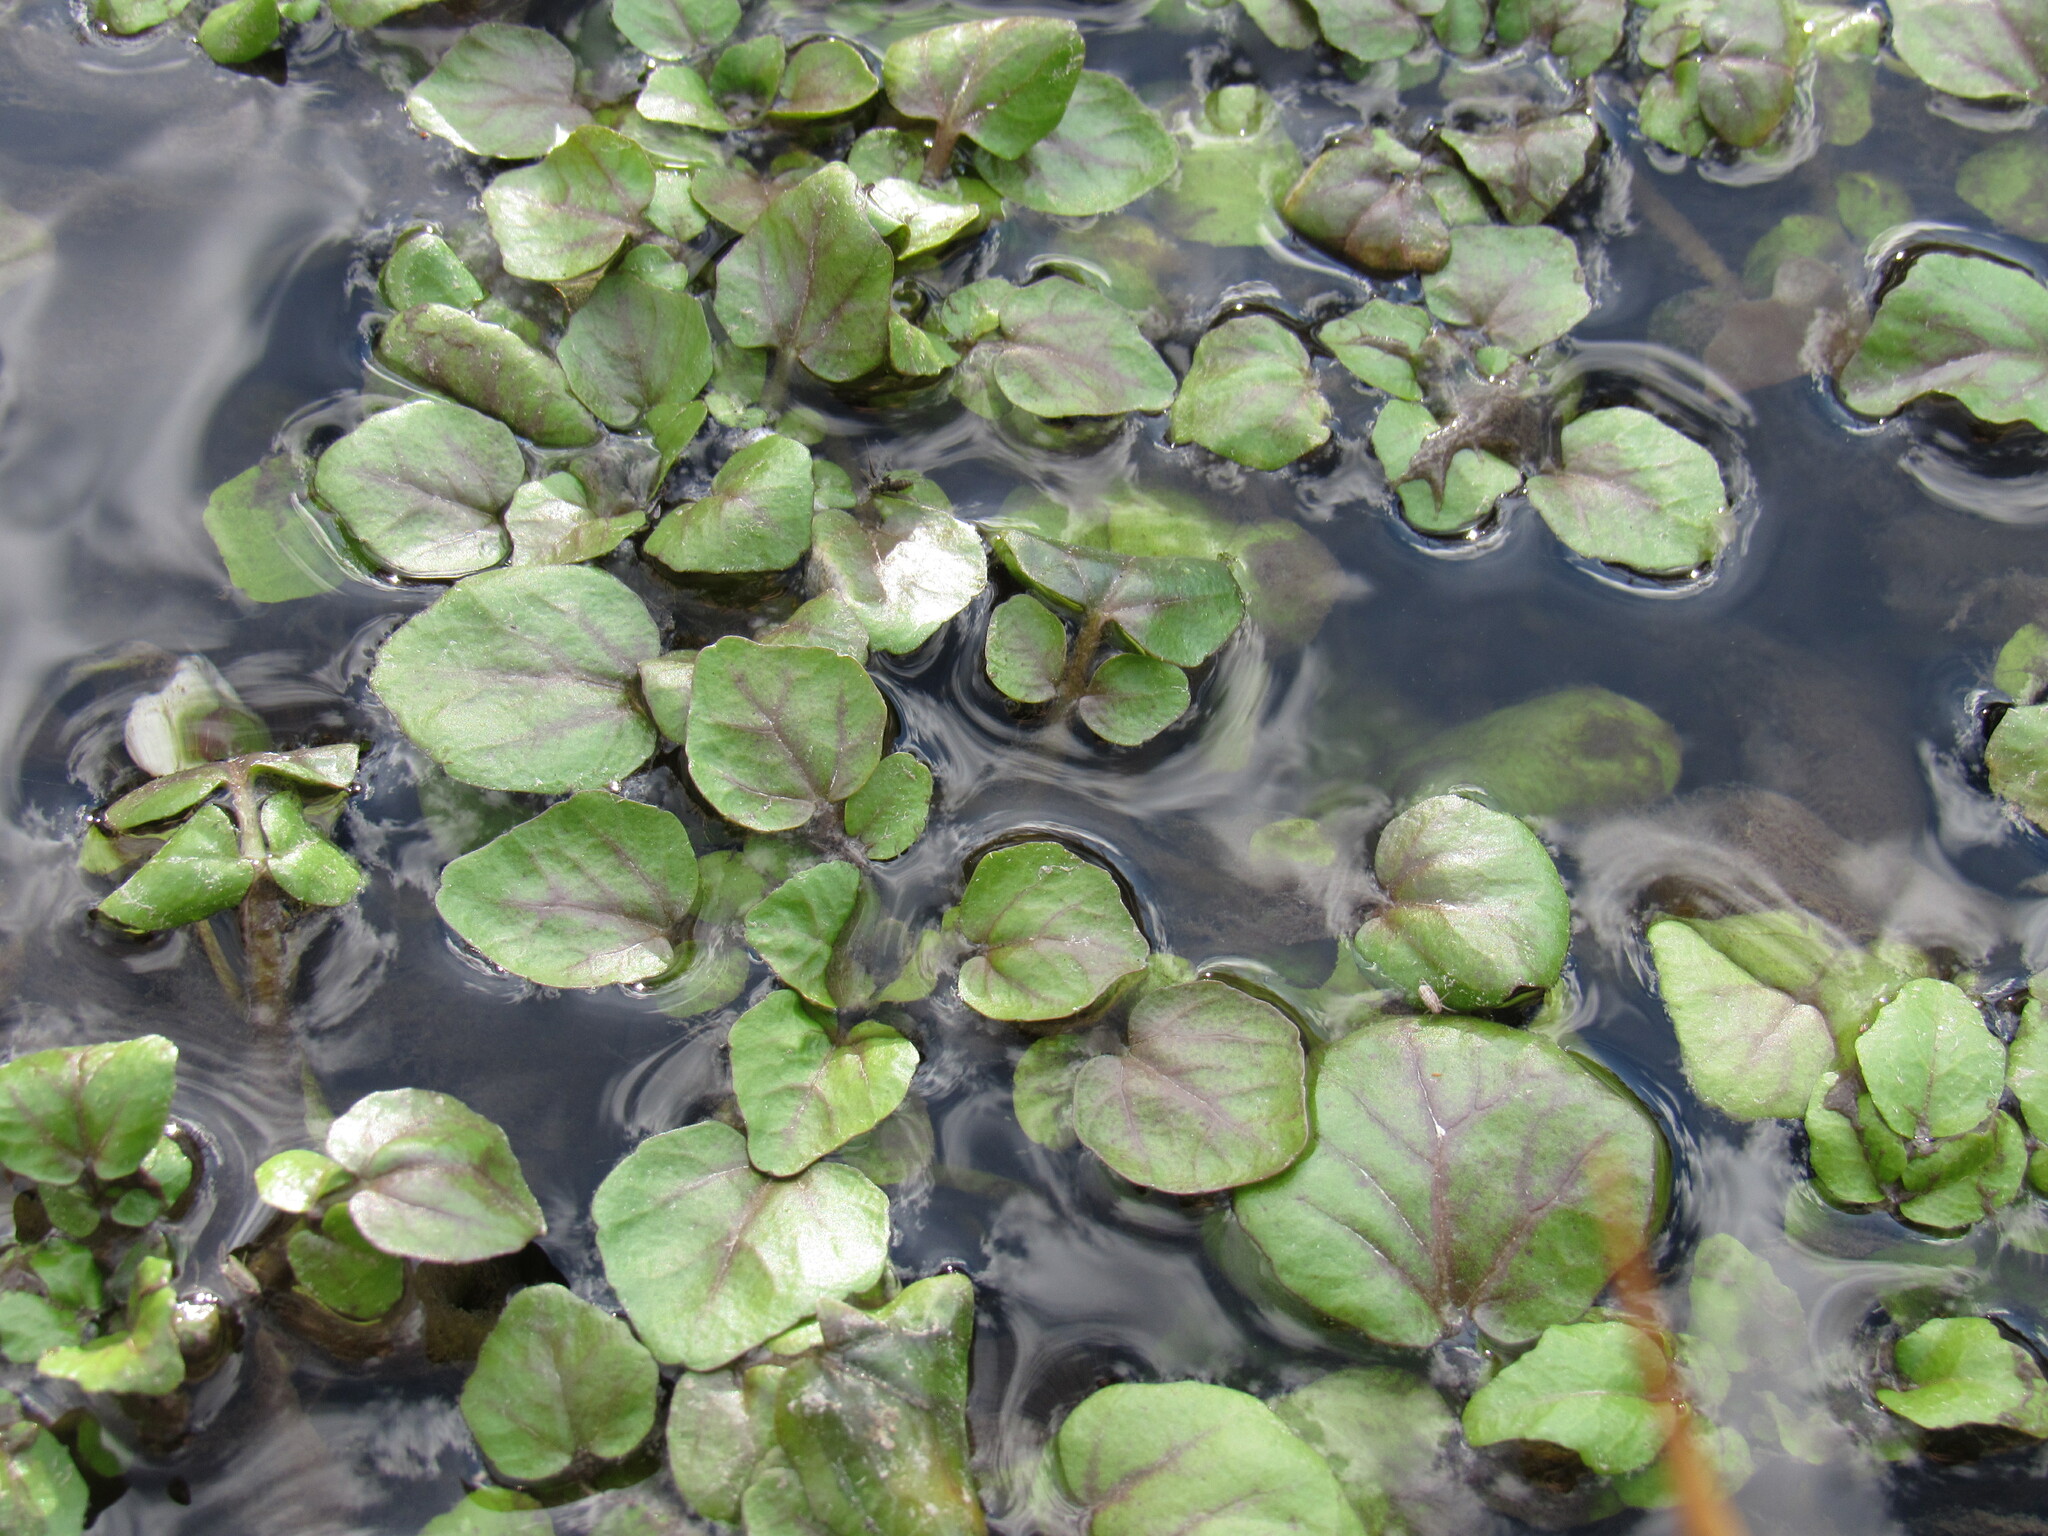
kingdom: Plantae
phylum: Tracheophyta
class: Magnoliopsida
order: Brassicales
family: Brassicaceae
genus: Nasturtium
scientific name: Nasturtium officinale
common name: Watercress
